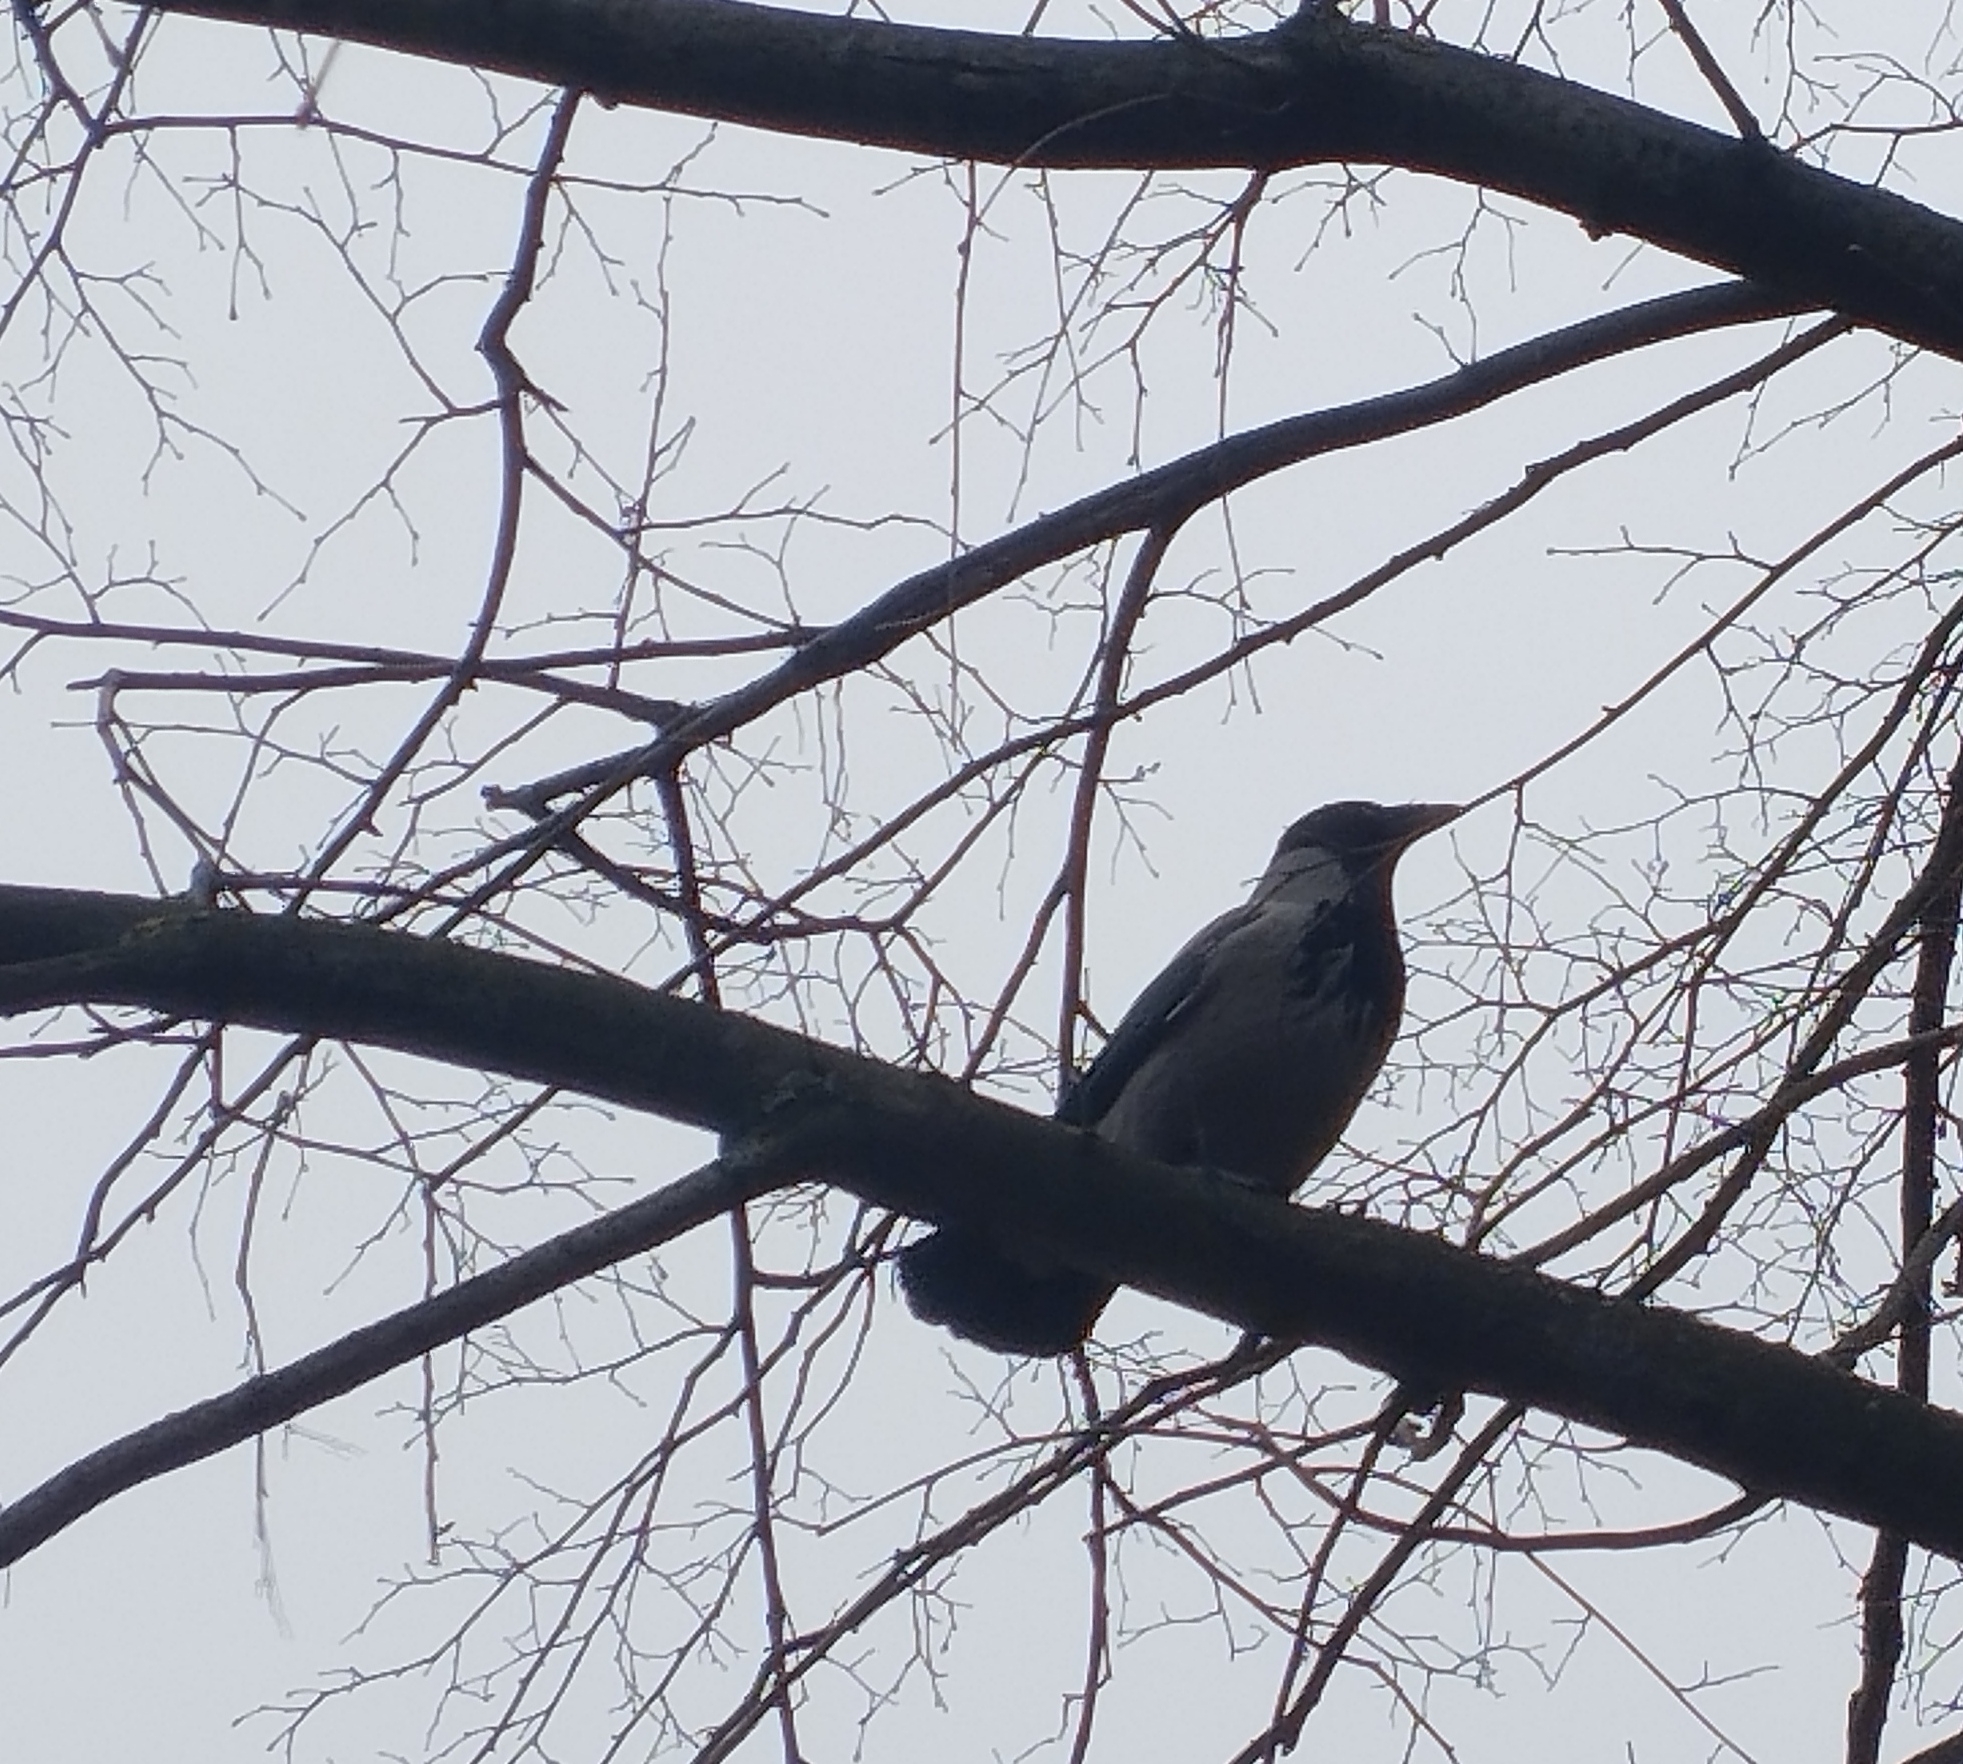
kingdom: Animalia
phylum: Chordata
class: Aves
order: Passeriformes
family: Corvidae
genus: Corvus
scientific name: Corvus cornix
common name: Hooded crow
